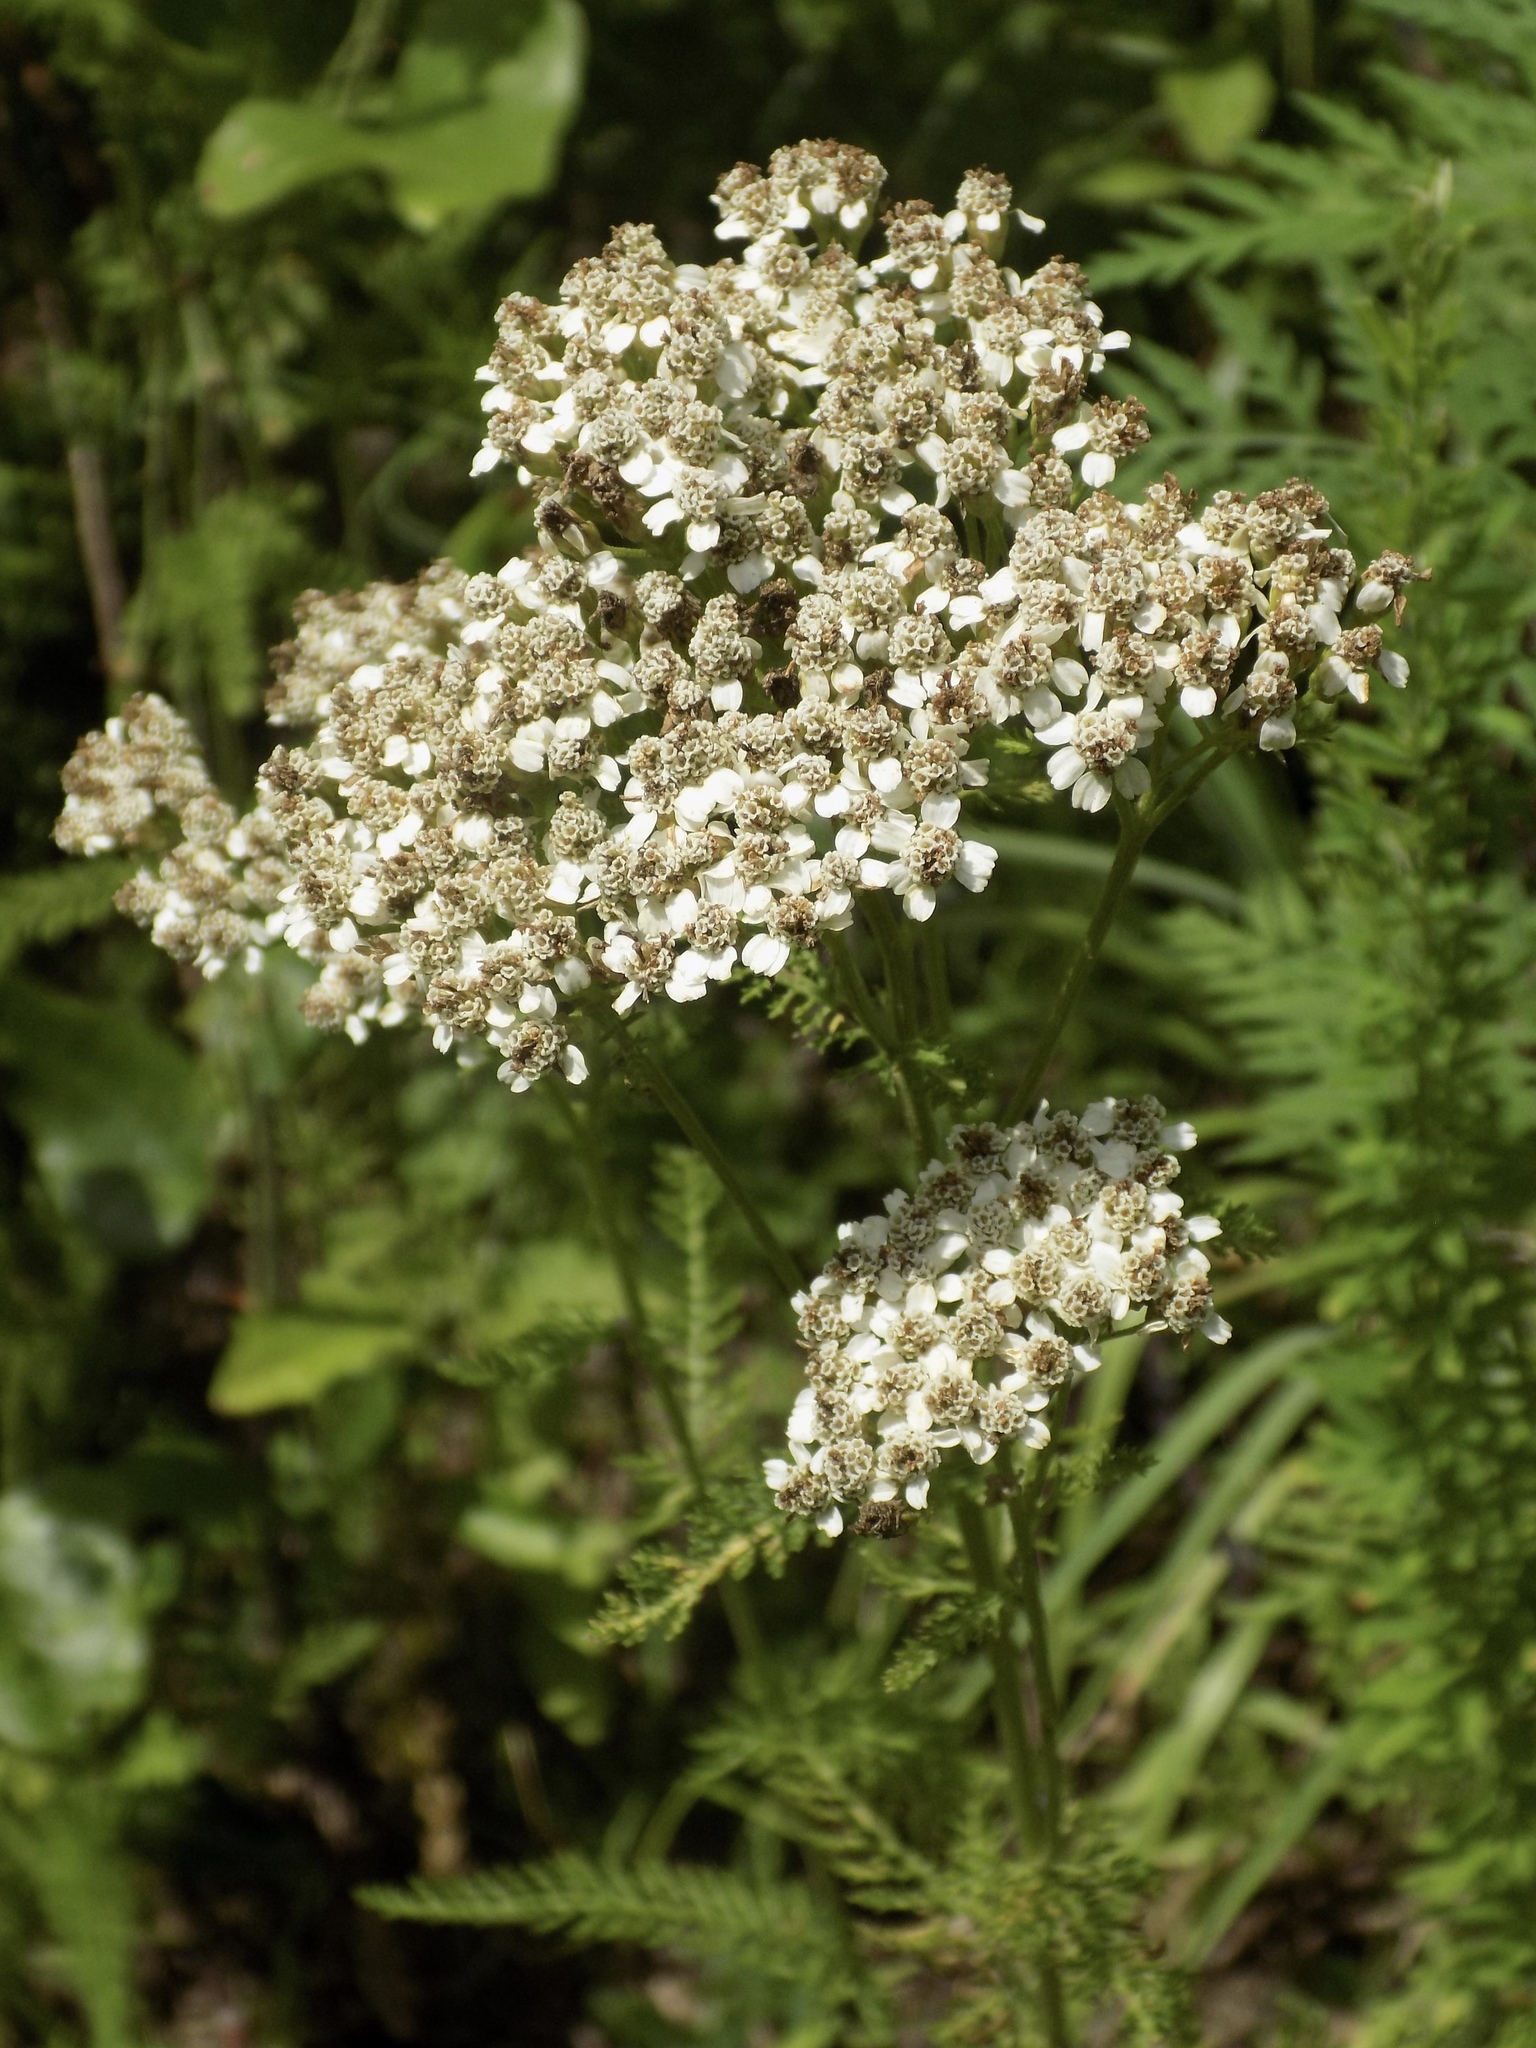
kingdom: Plantae
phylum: Tracheophyta
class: Magnoliopsida
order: Asterales
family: Asteraceae
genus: Achillea
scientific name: Achillea millefolium
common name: Yarrow
